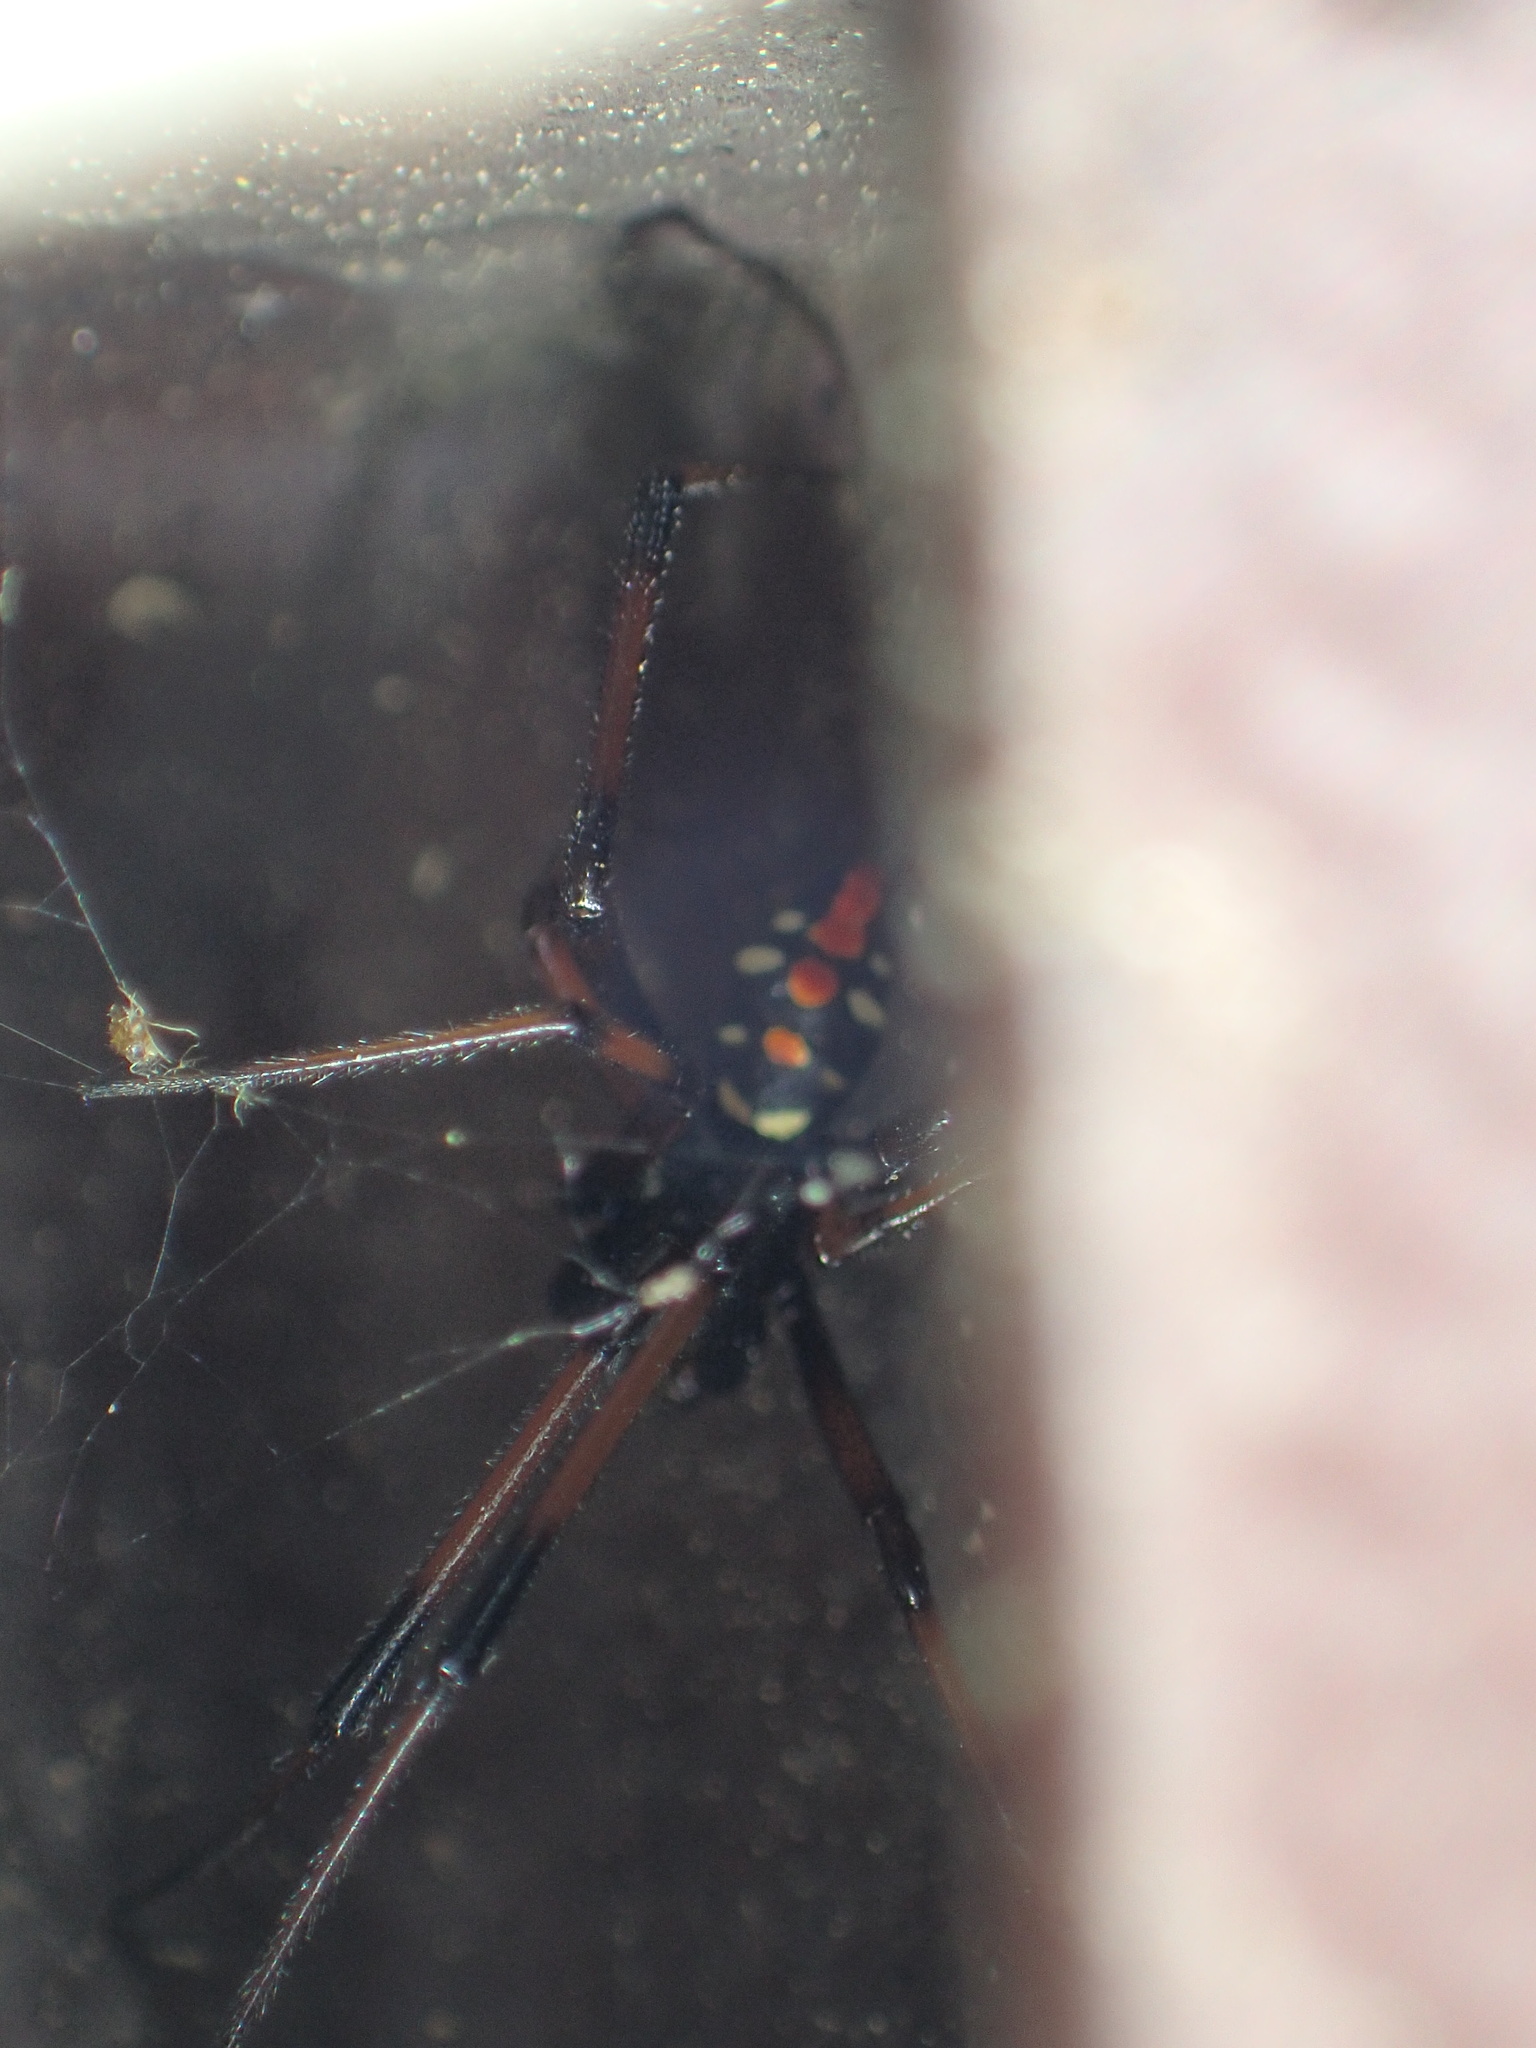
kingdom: Animalia
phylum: Arthropoda
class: Arachnida
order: Araneae
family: Theridiidae
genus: Latrodectus
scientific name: Latrodectus mactans
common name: Cobweb spiders
